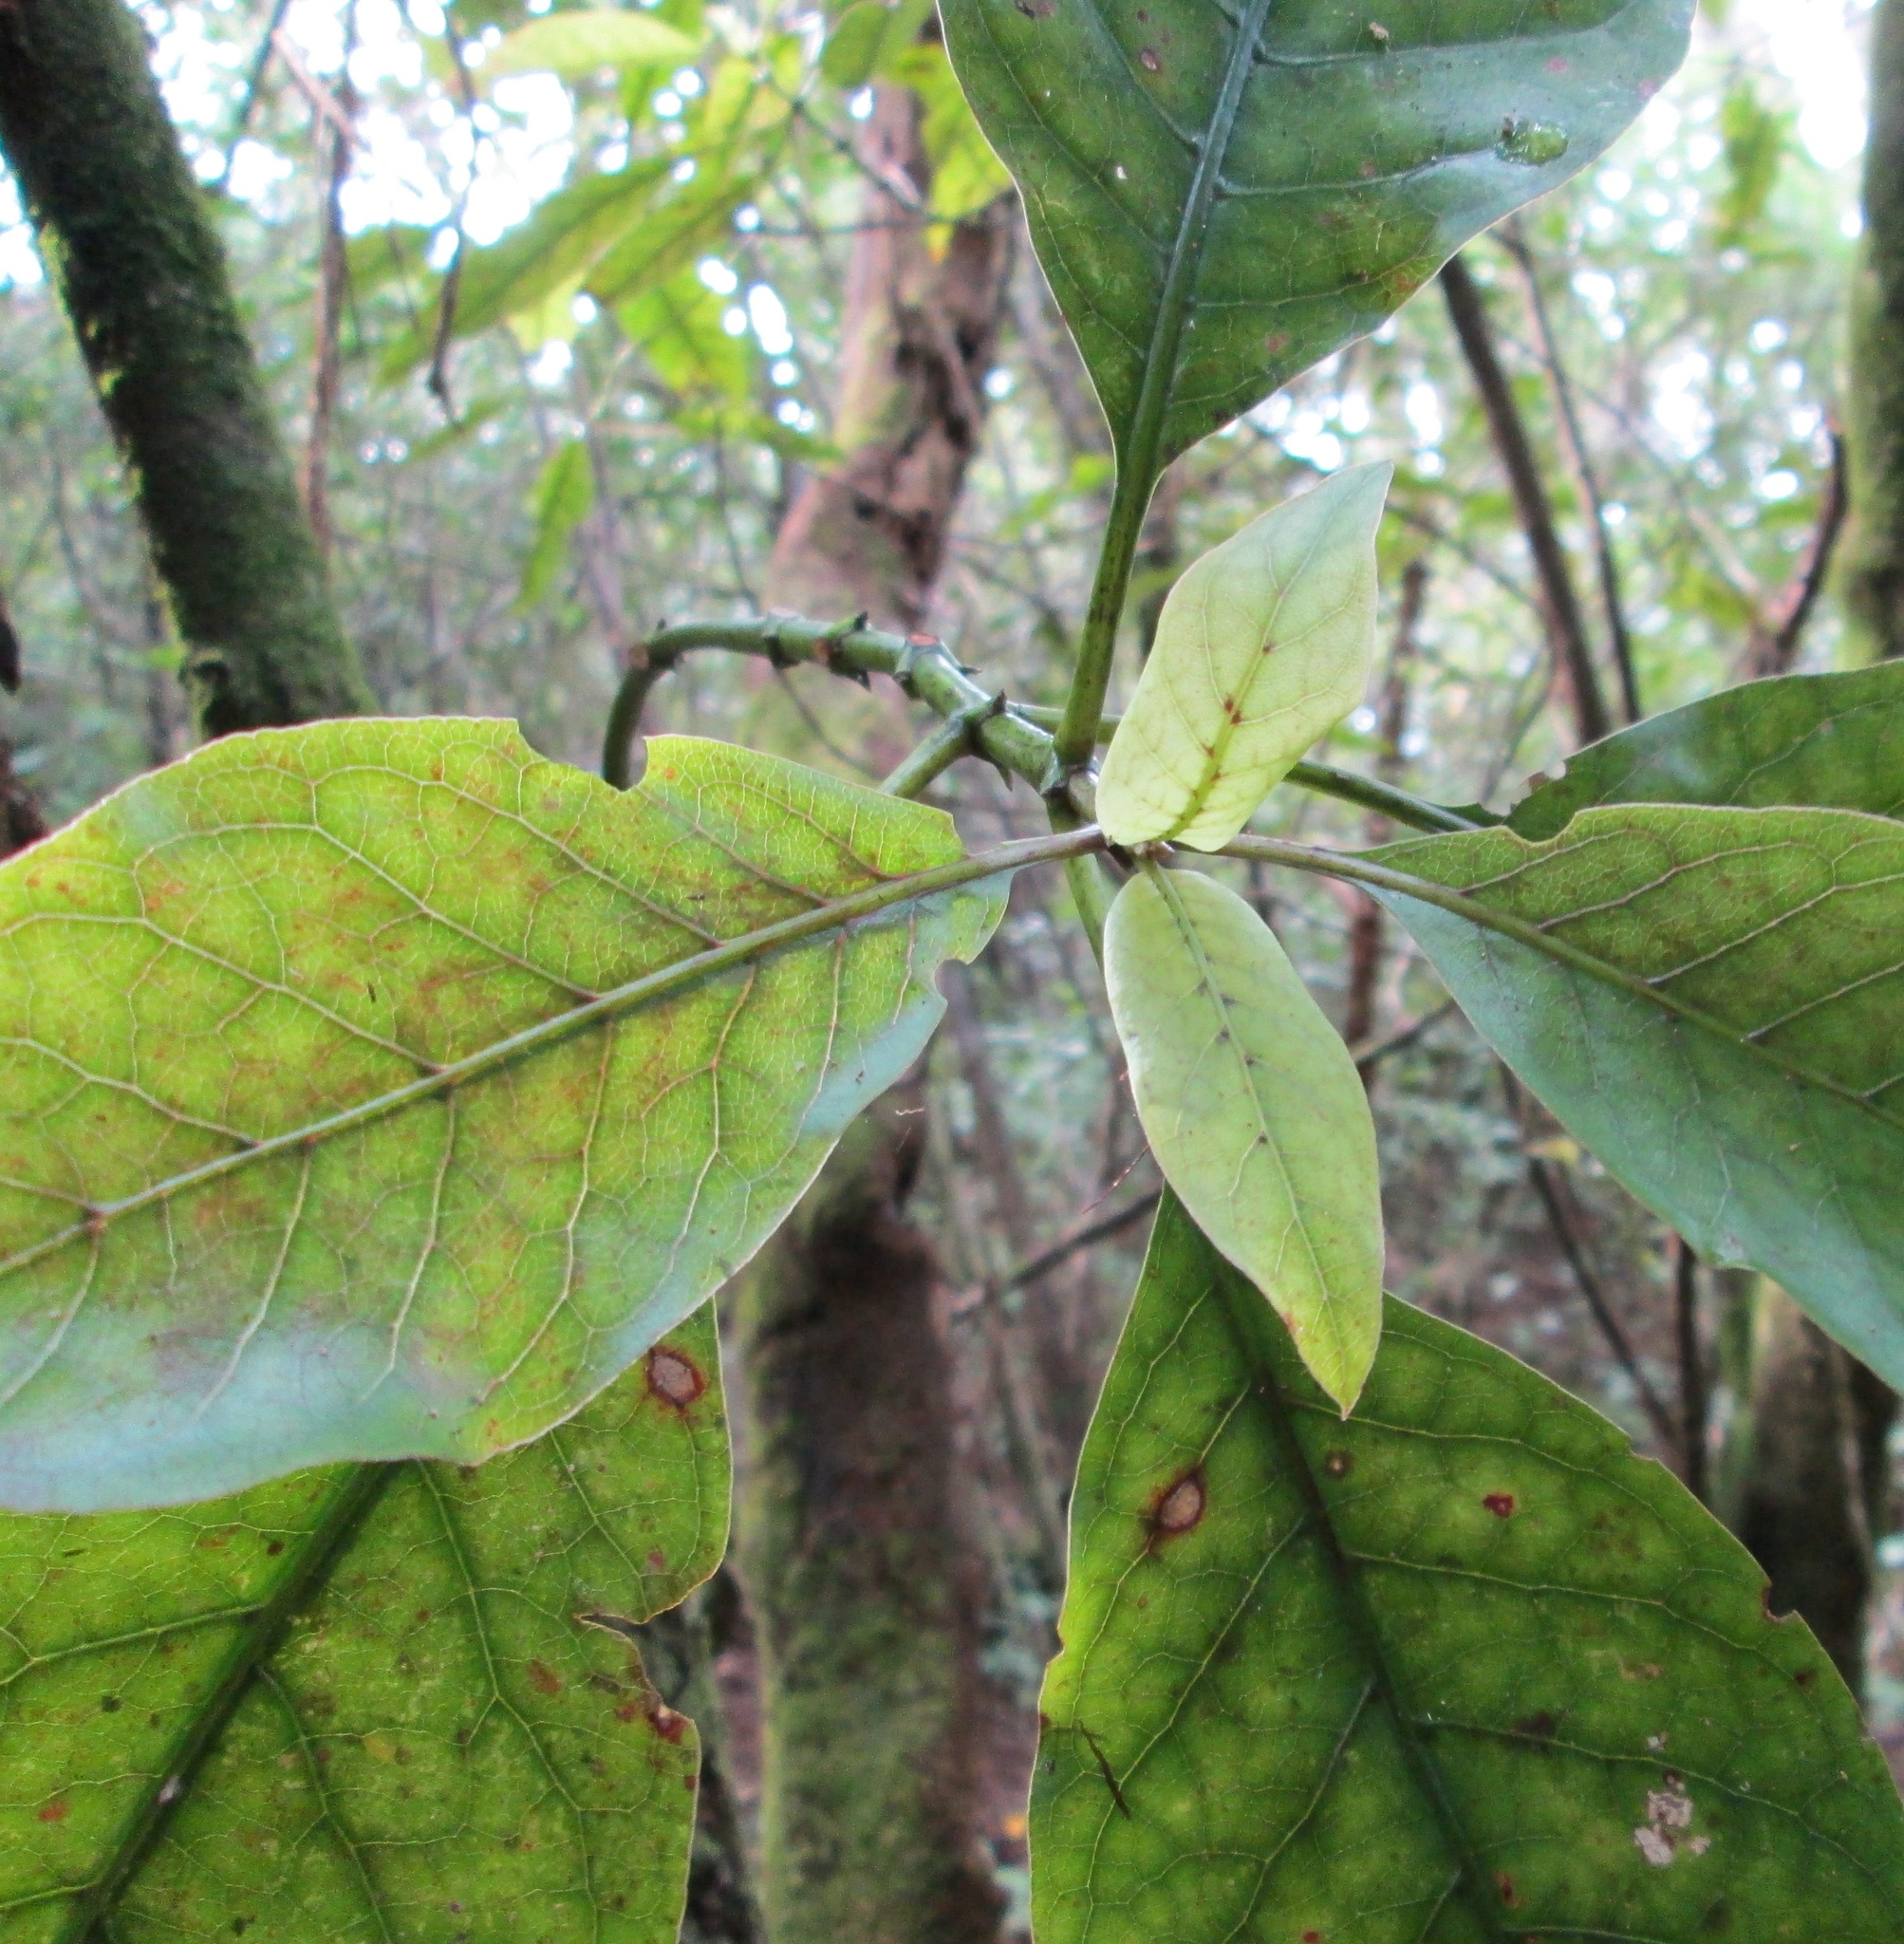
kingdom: Plantae
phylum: Tracheophyta
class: Magnoliopsida
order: Gentianales
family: Rubiaceae
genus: Coprosma
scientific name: Coprosma autumnalis
